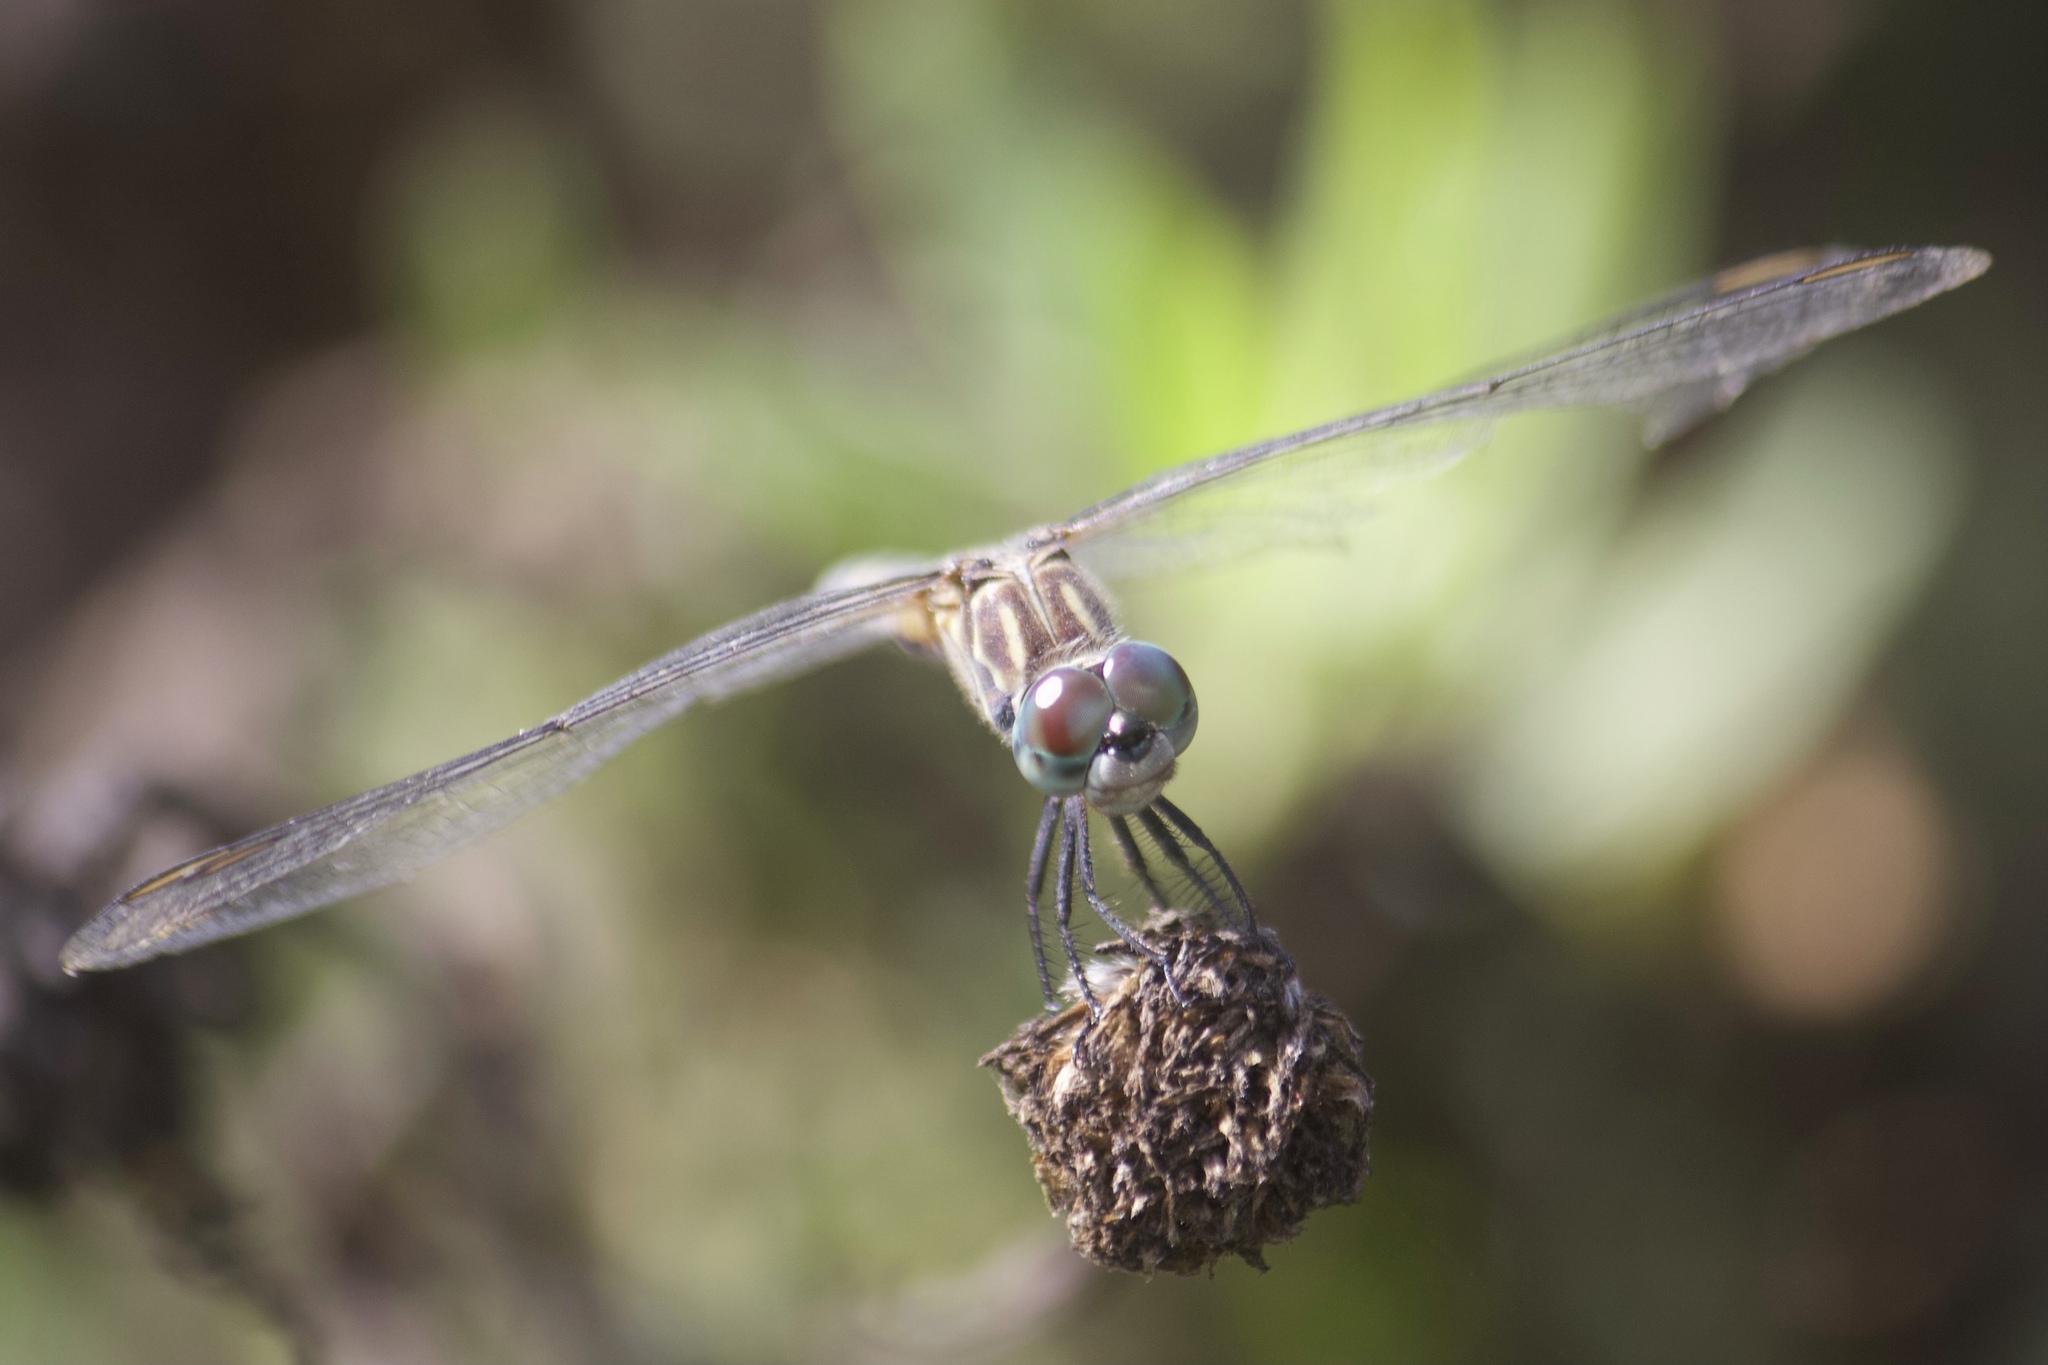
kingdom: Animalia
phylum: Arthropoda
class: Insecta
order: Odonata
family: Libellulidae
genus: Pachydiplax
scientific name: Pachydiplax longipennis
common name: Blue dasher
